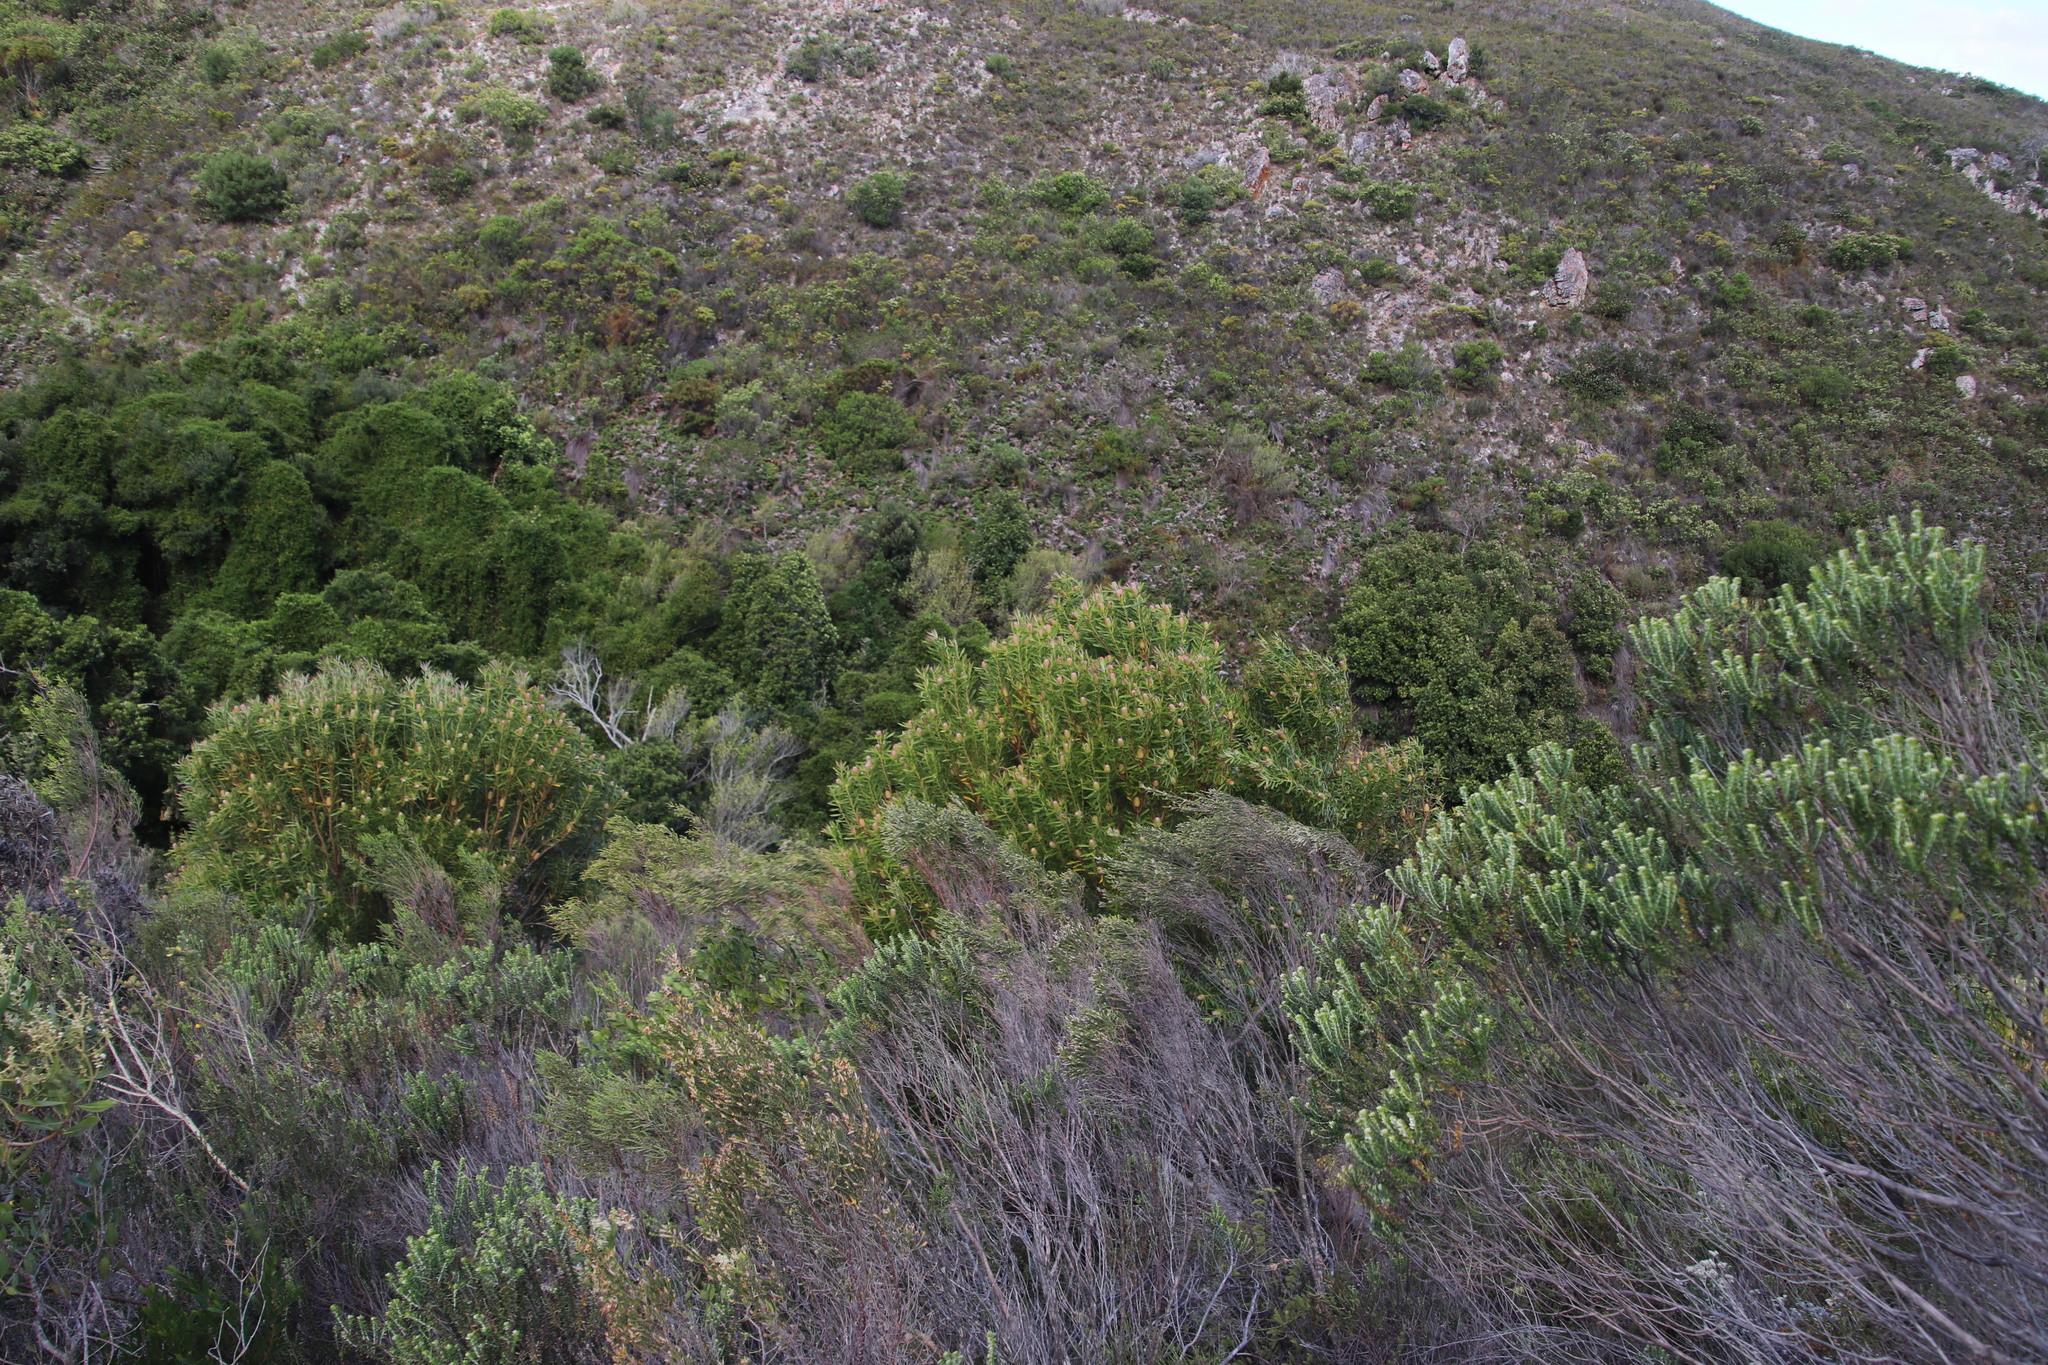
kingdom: Plantae
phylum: Tracheophyta
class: Magnoliopsida
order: Proteales
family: Proteaceae
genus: Leucadendron
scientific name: Leucadendron meridianum
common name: Limestone conebush
